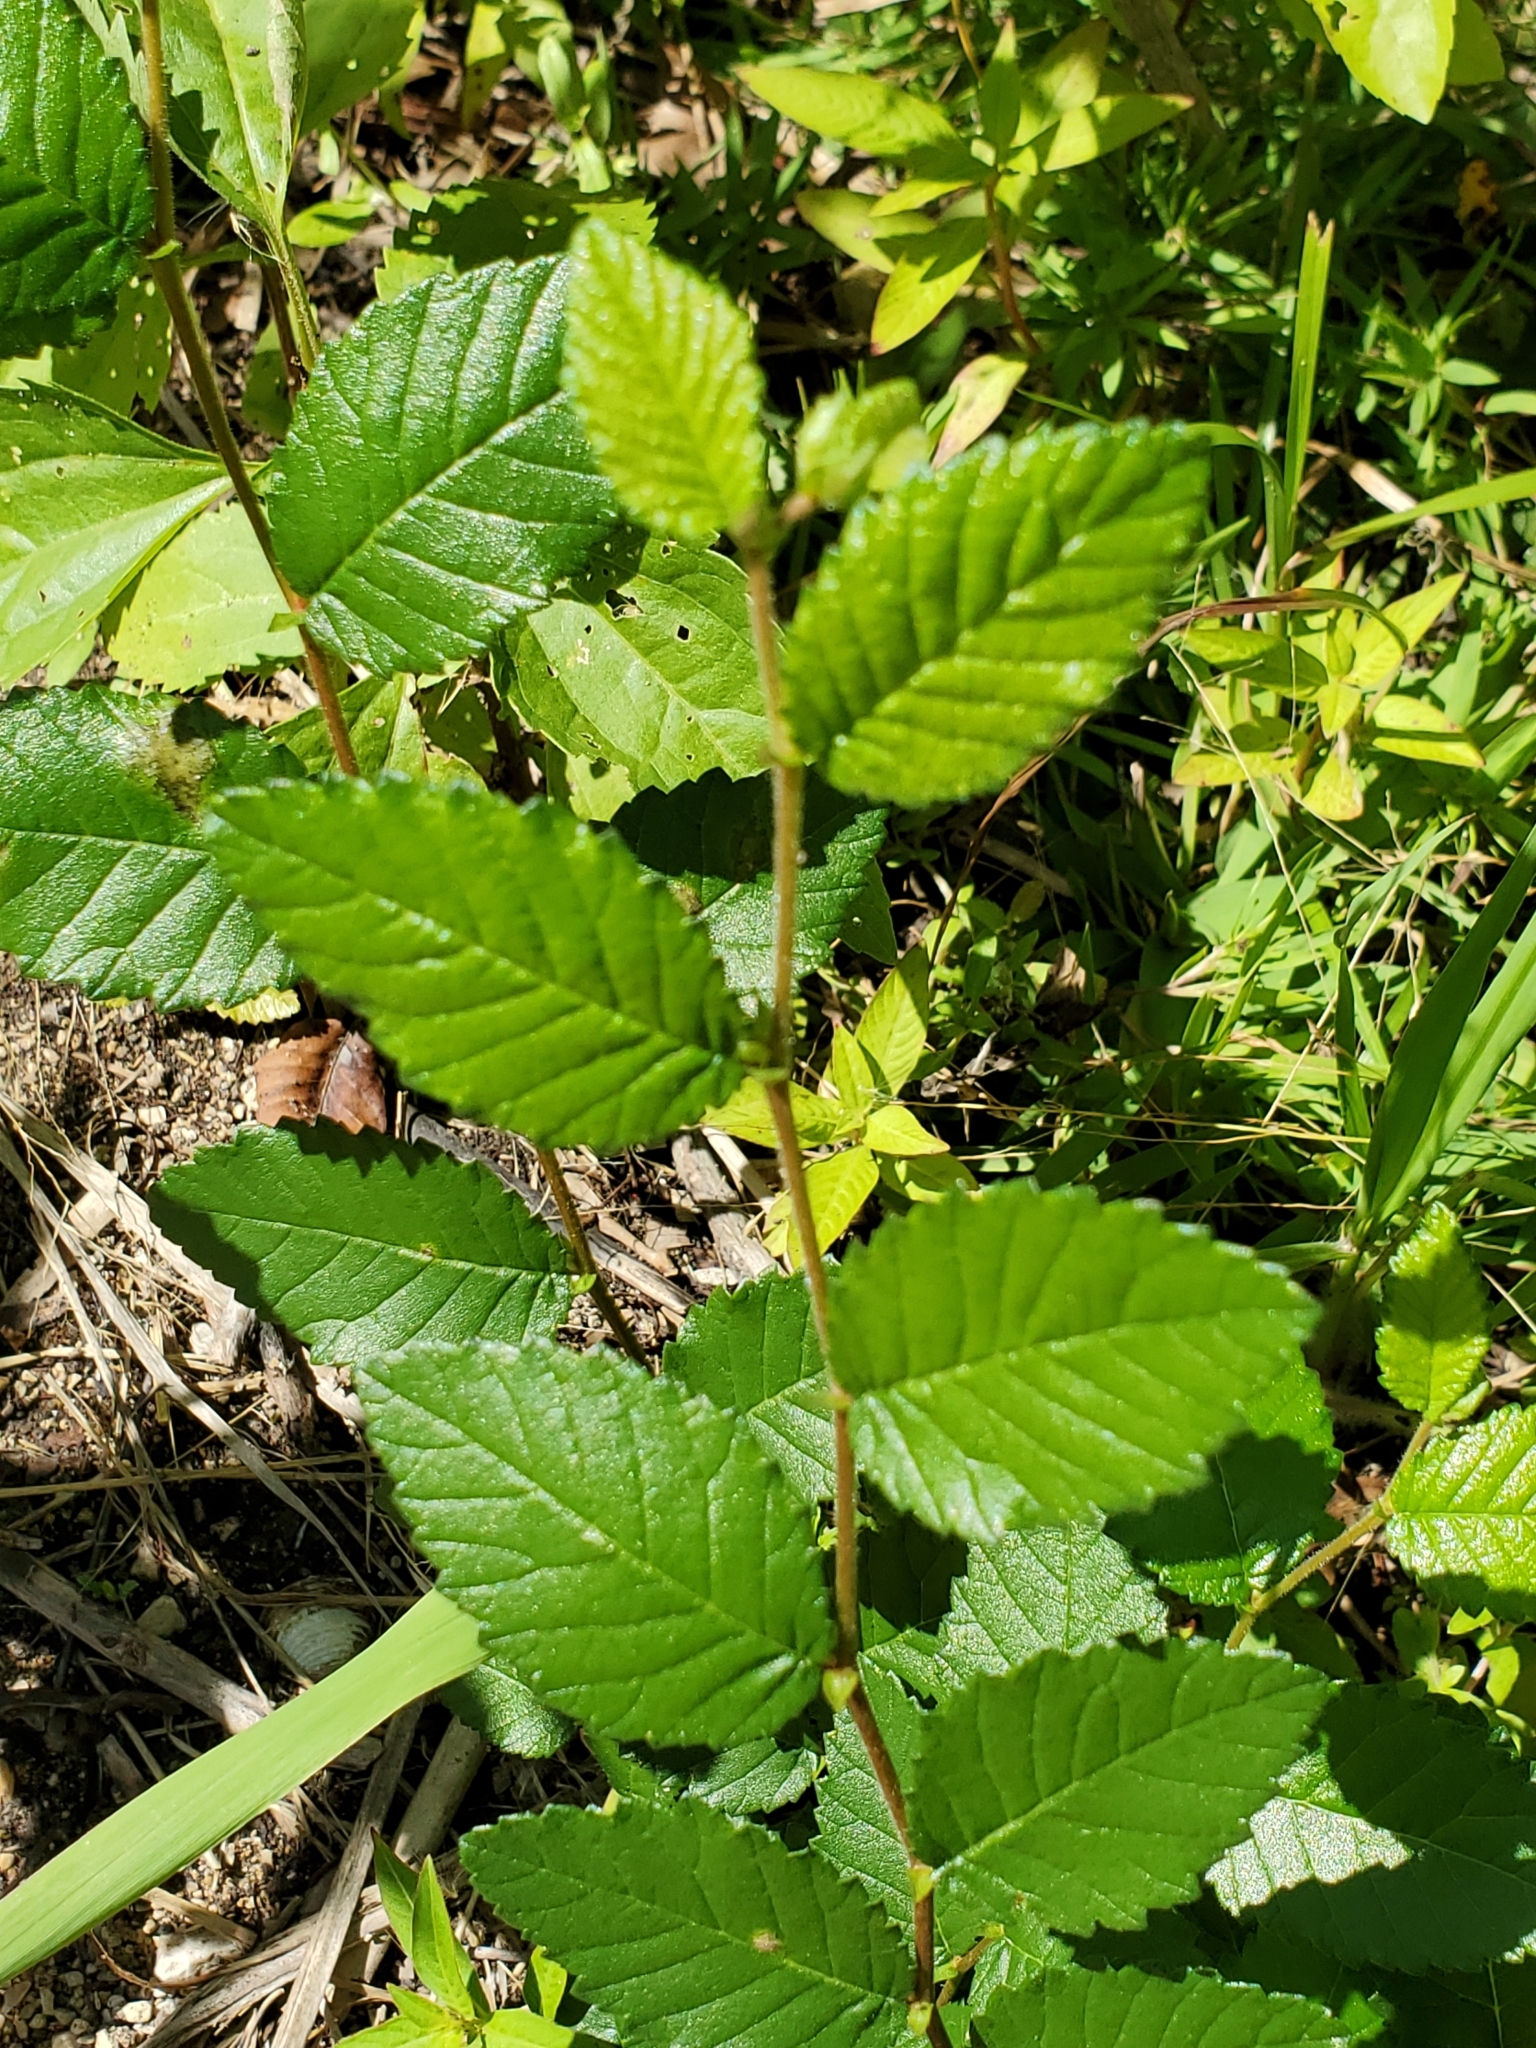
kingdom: Plantae
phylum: Tracheophyta
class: Magnoliopsida
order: Rosales
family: Ulmaceae
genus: Ulmus
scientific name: Ulmus crassifolia
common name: Basket elm
